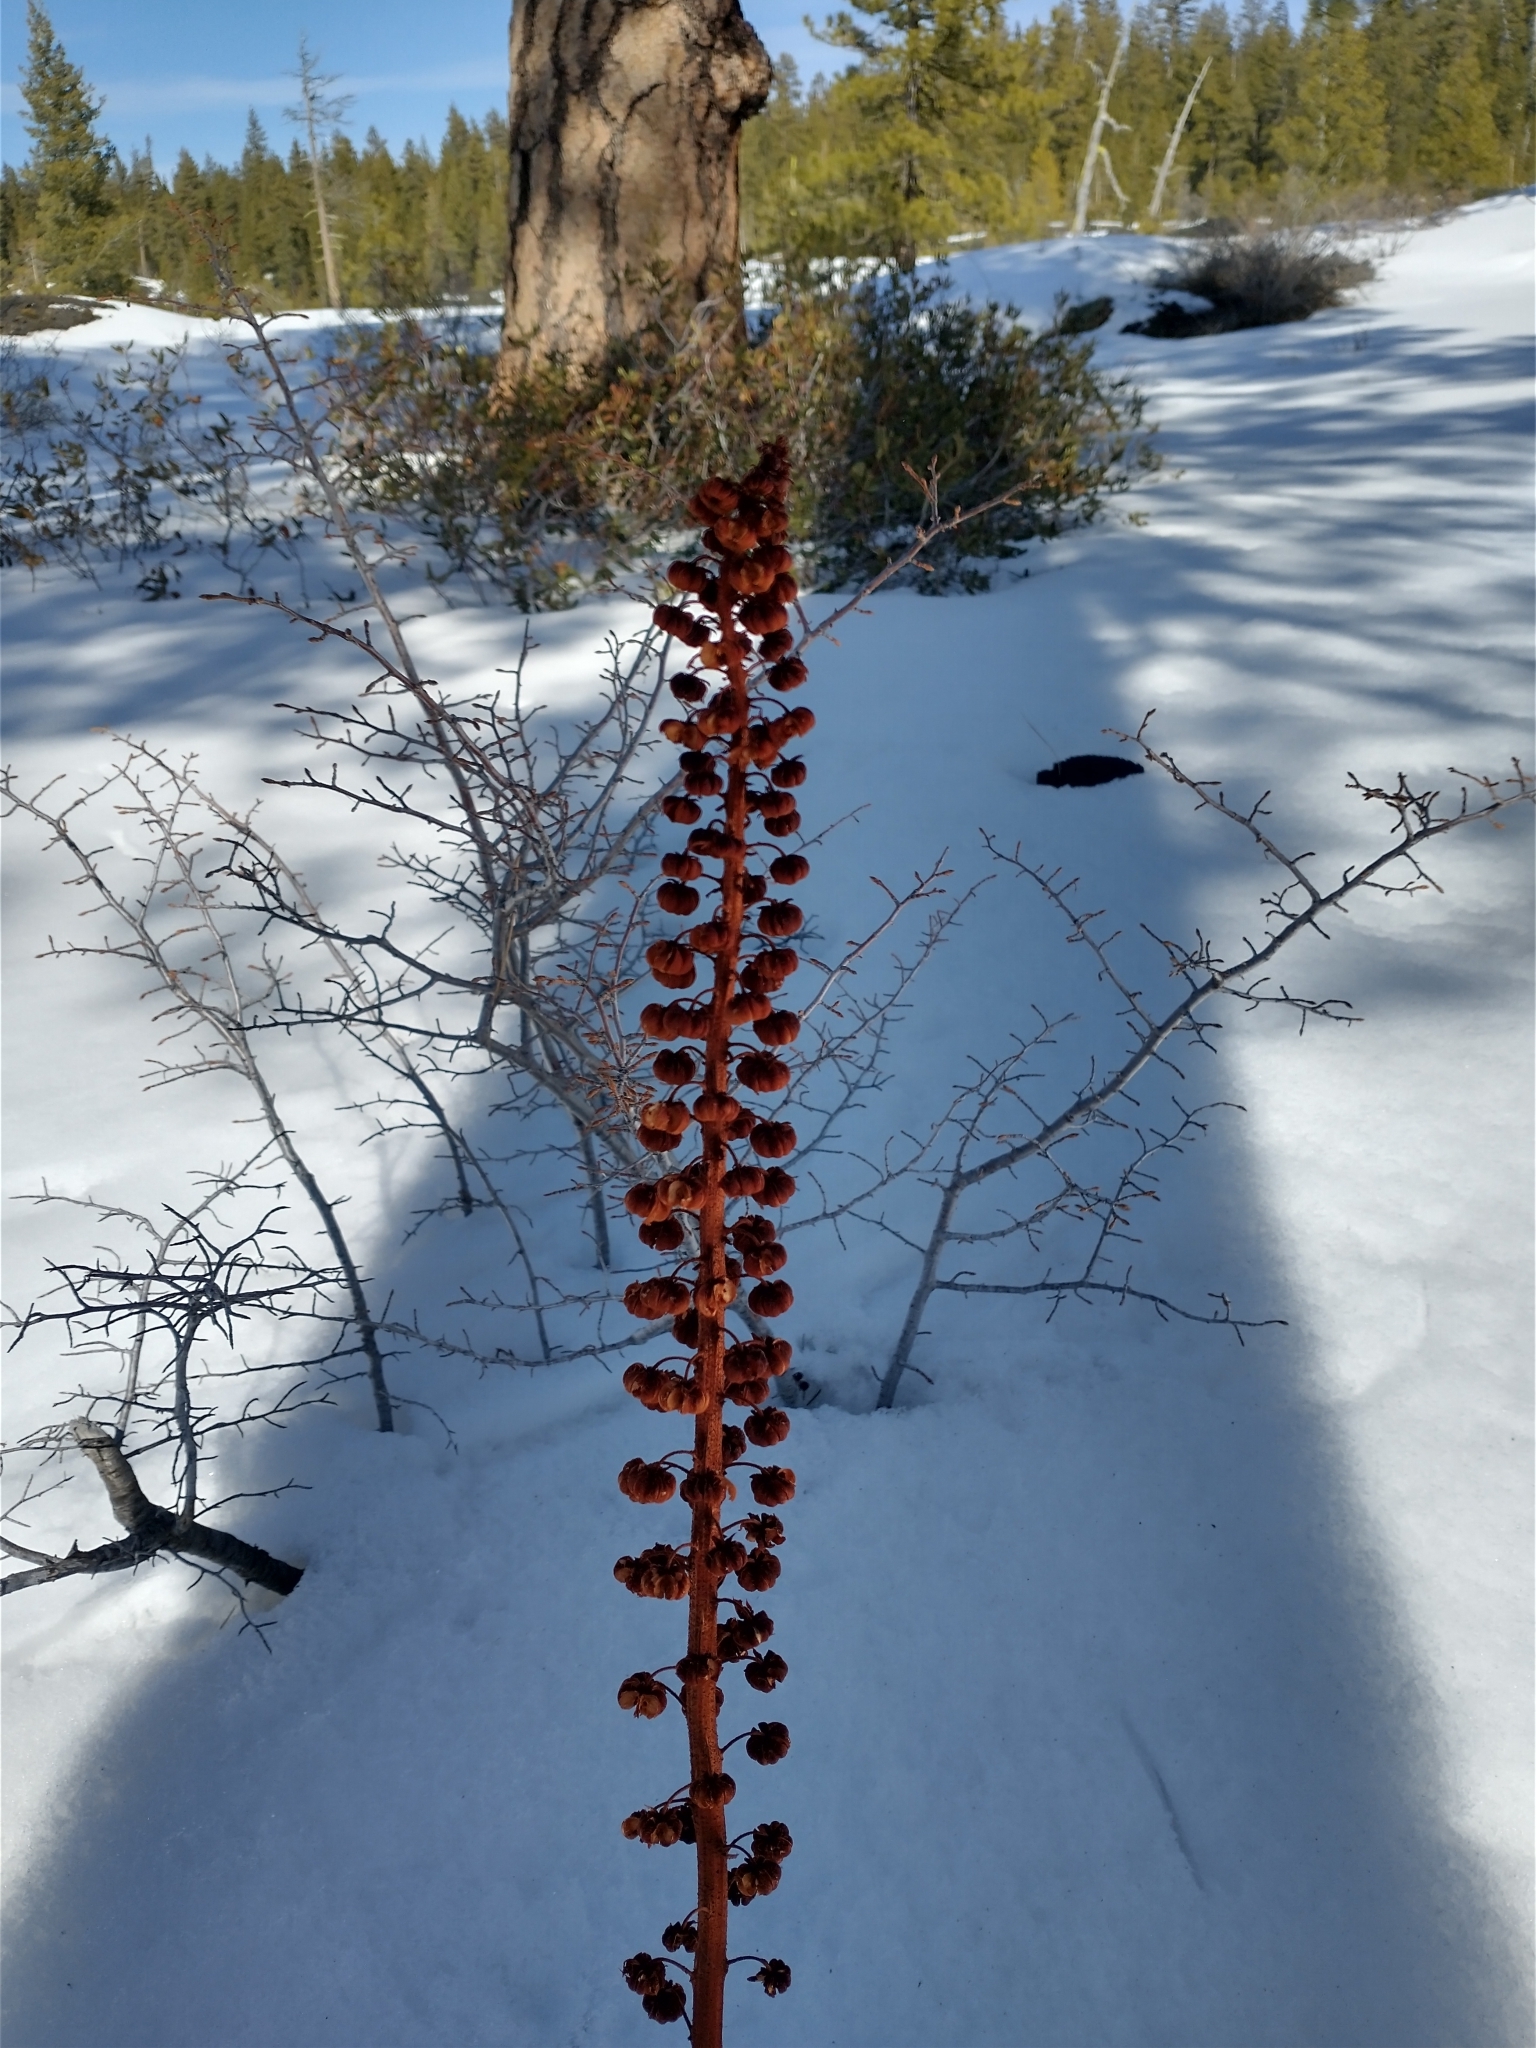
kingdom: Plantae
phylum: Tracheophyta
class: Magnoliopsida
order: Ericales
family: Ericaceae
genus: Pterospora
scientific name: Pterospora andromedea
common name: Giant bird's-nest
